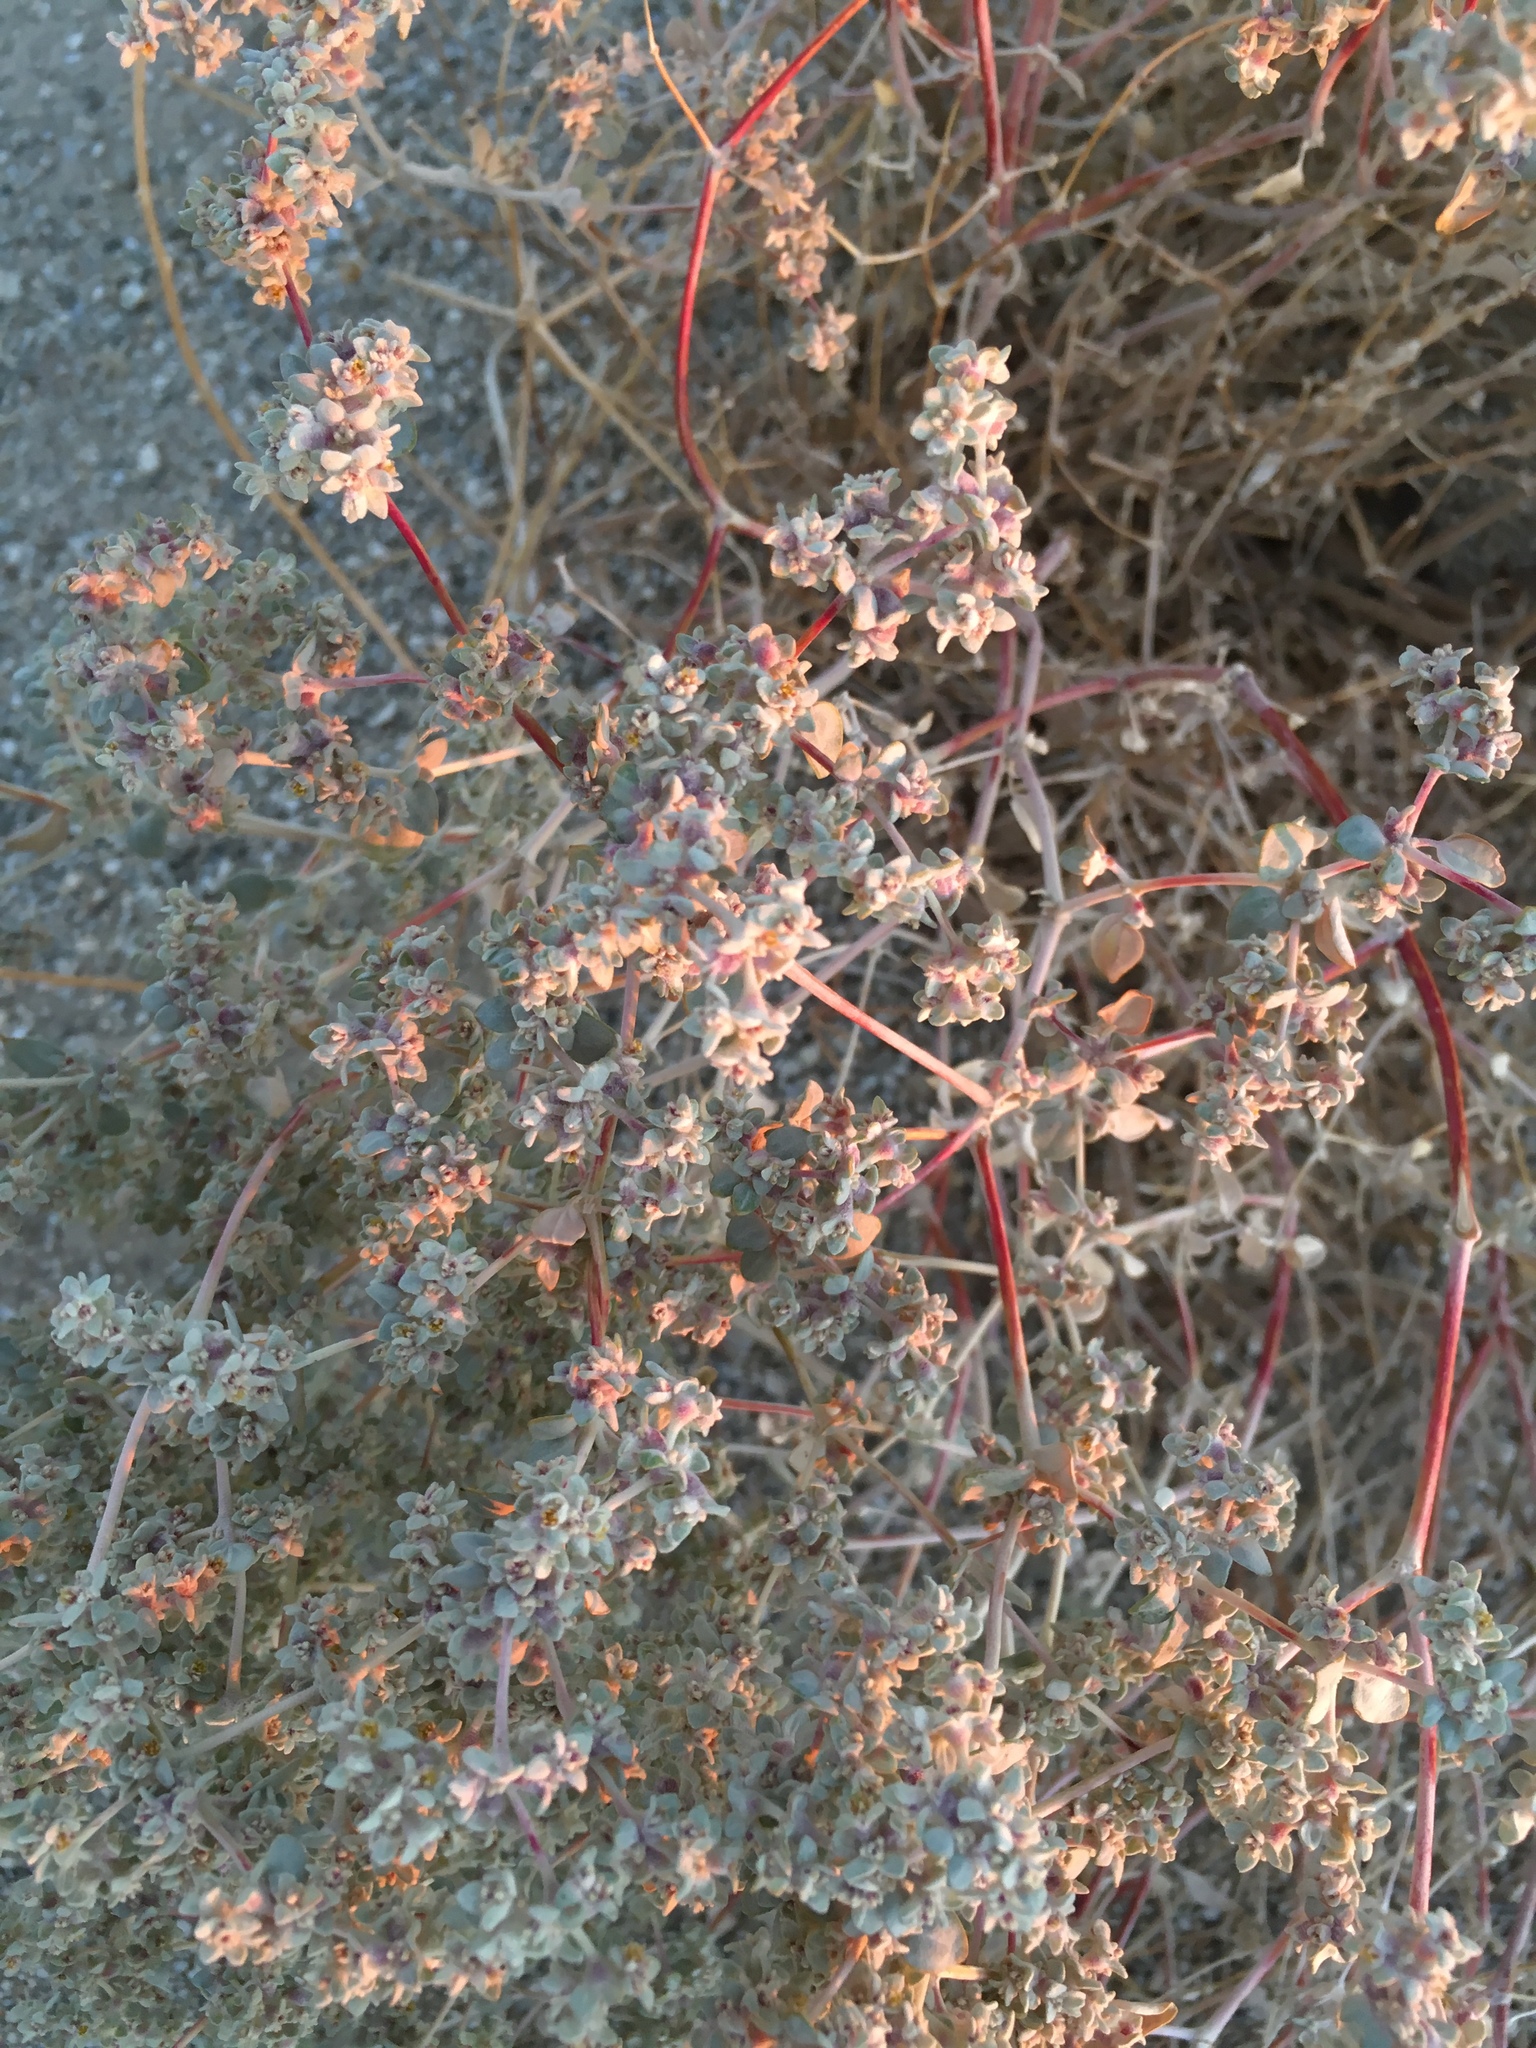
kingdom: Plantae
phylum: Tracheophyta
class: Magnoliopsida
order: Caryophyllales
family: Amaranthaceae
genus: Tidestromia
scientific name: Tidestromia suffruticosa
